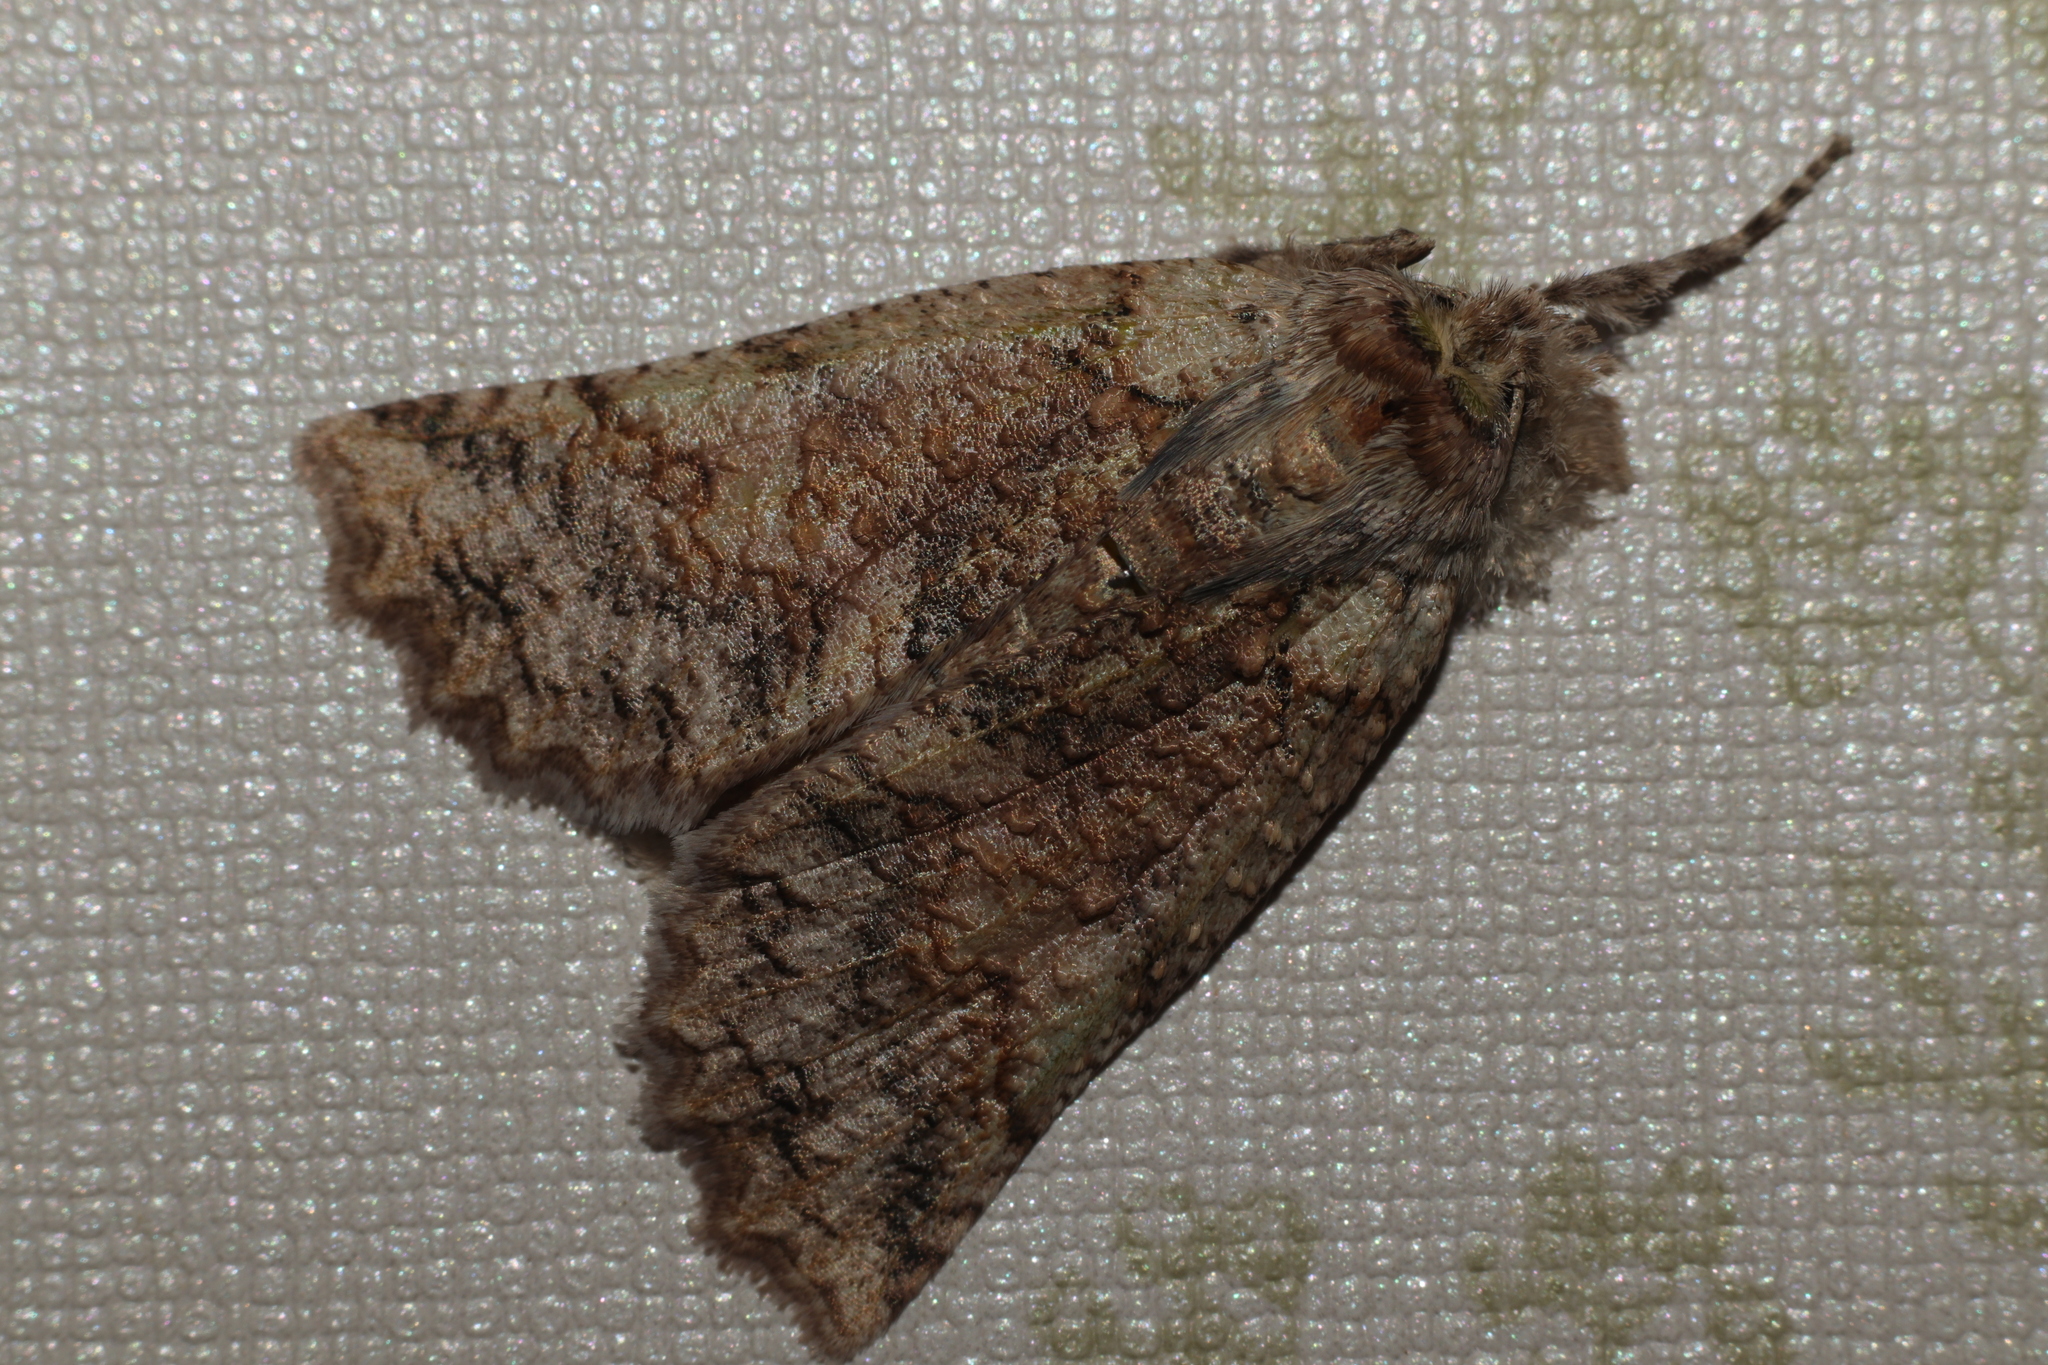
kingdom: Animalia
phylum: Arthropoda
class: Insecta
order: Lepidoptera
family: Geometridae
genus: Declana
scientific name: Declana floccosa
